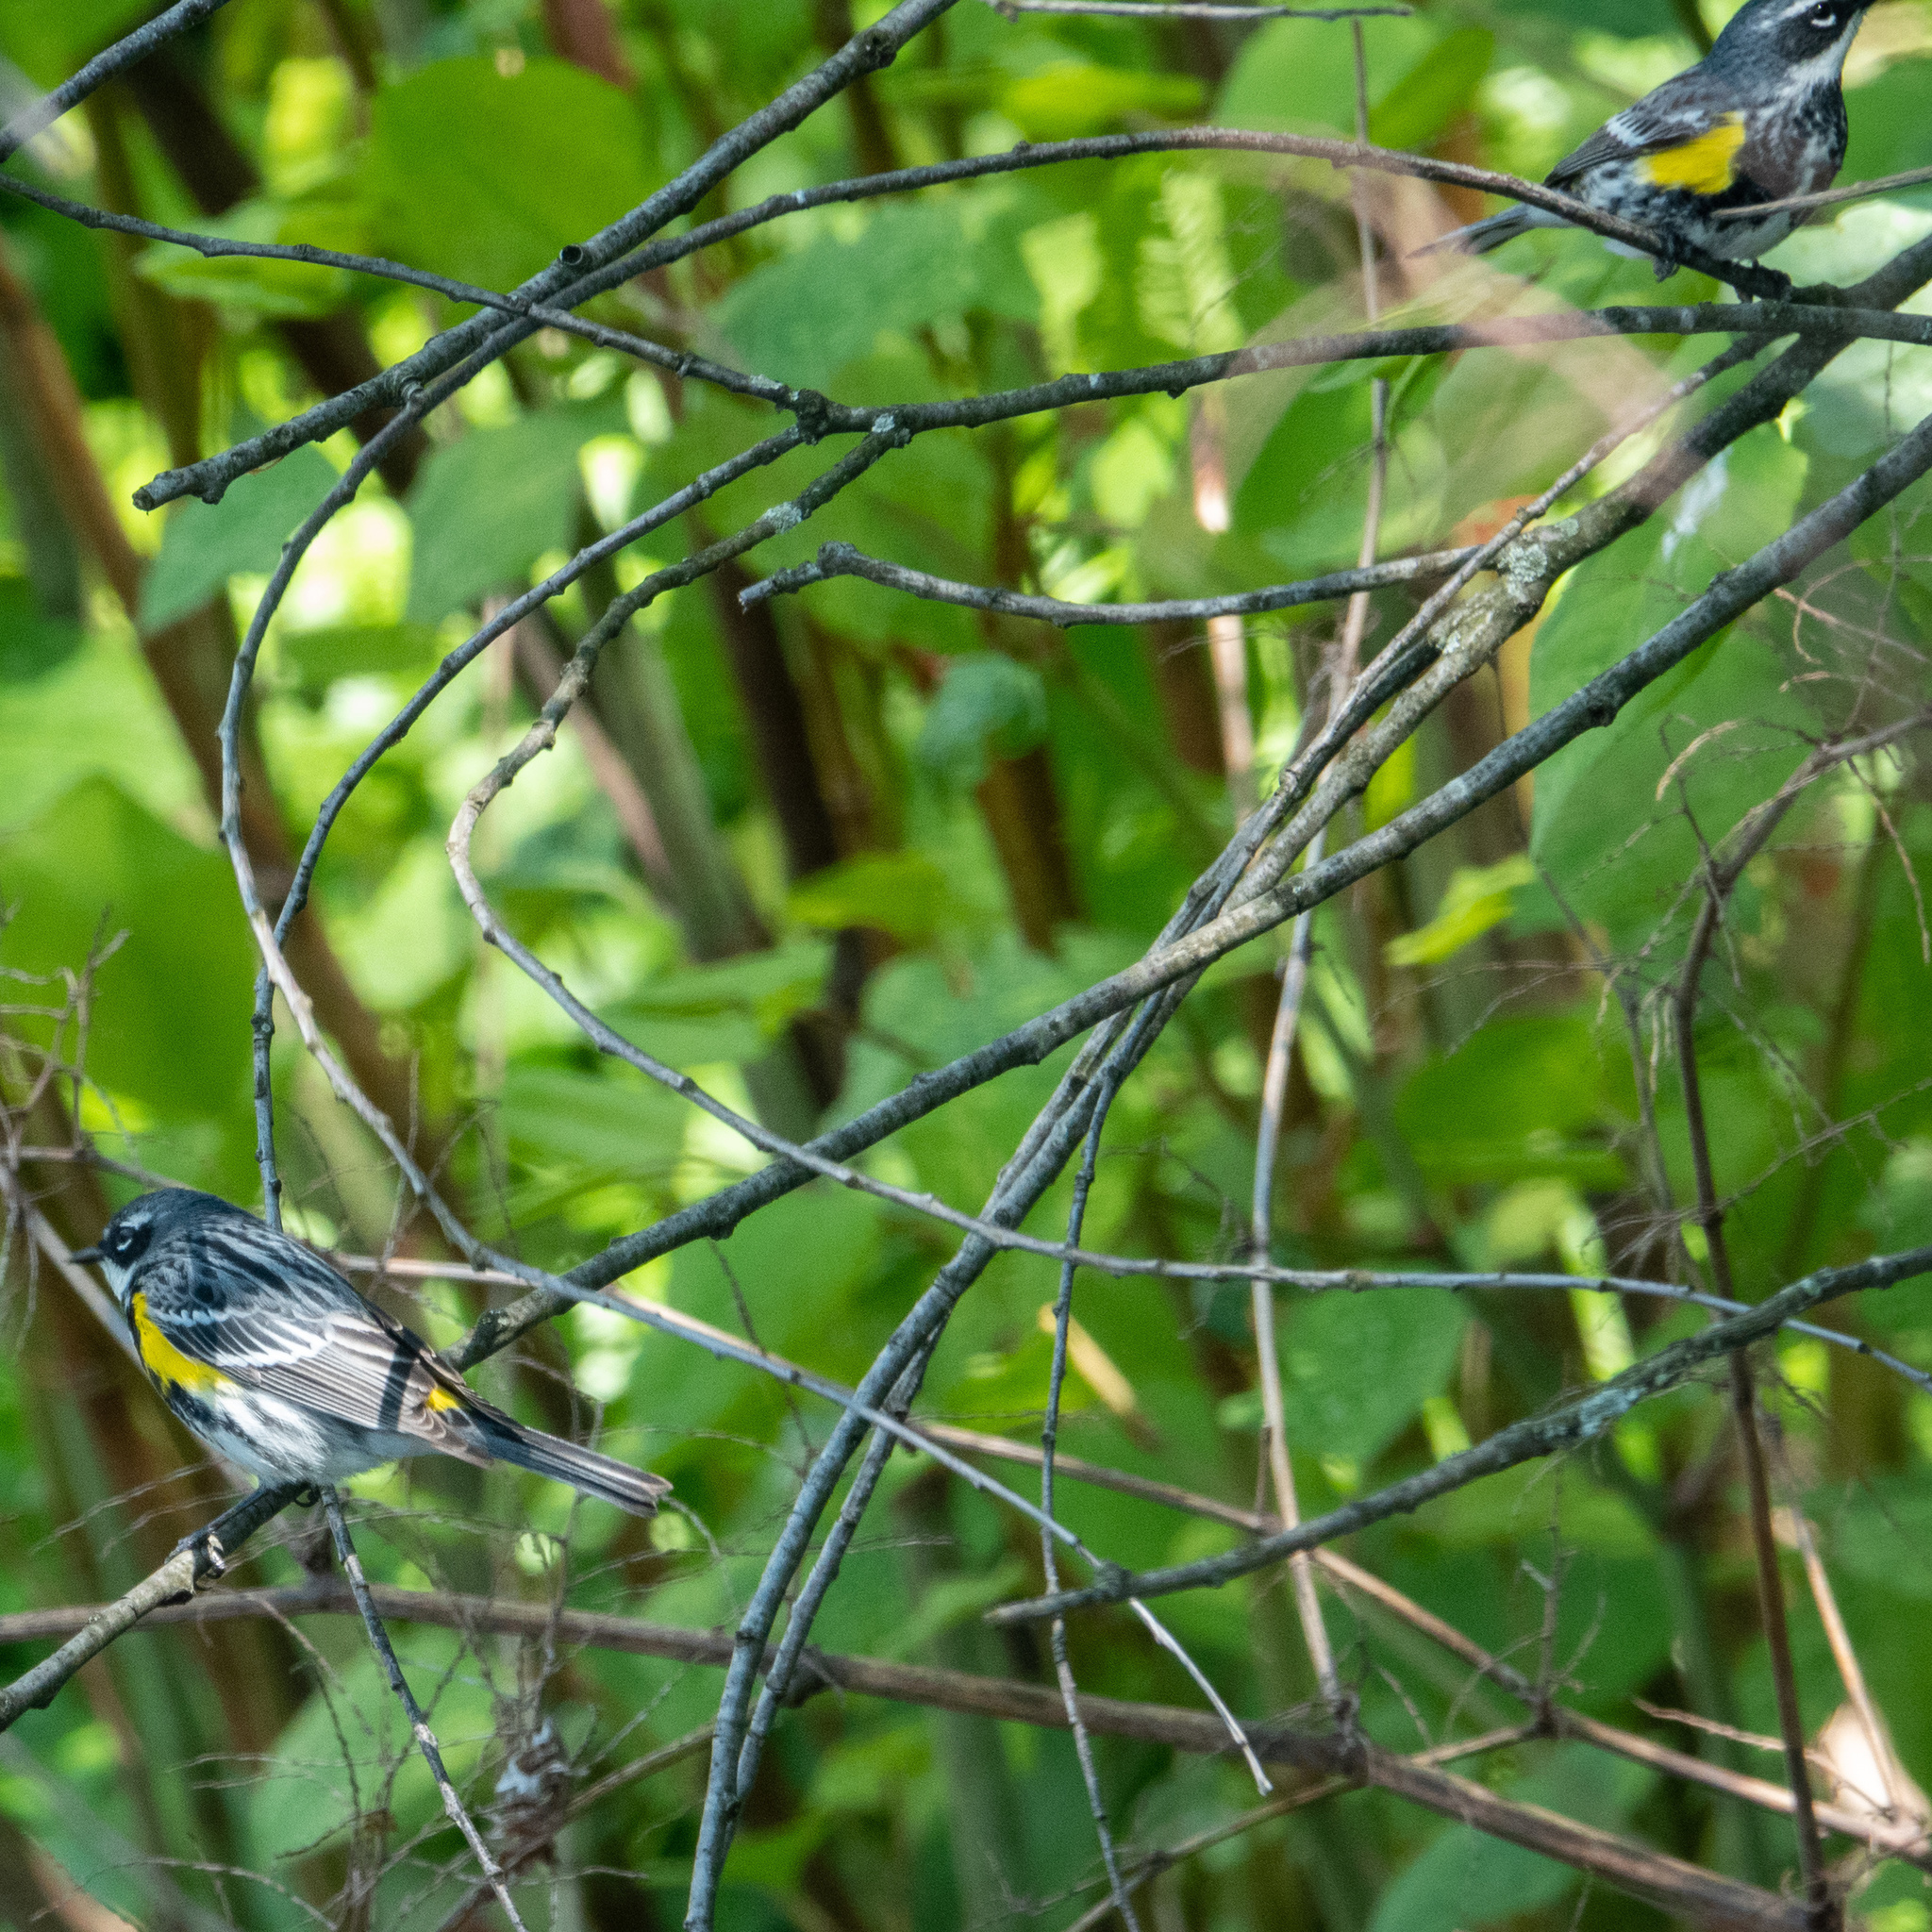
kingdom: Animalia
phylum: Chordata
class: Aves
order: Passeriformes
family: Parulidae
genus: Setophaga
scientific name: Setophaga coronata
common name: Myrtle warbler
